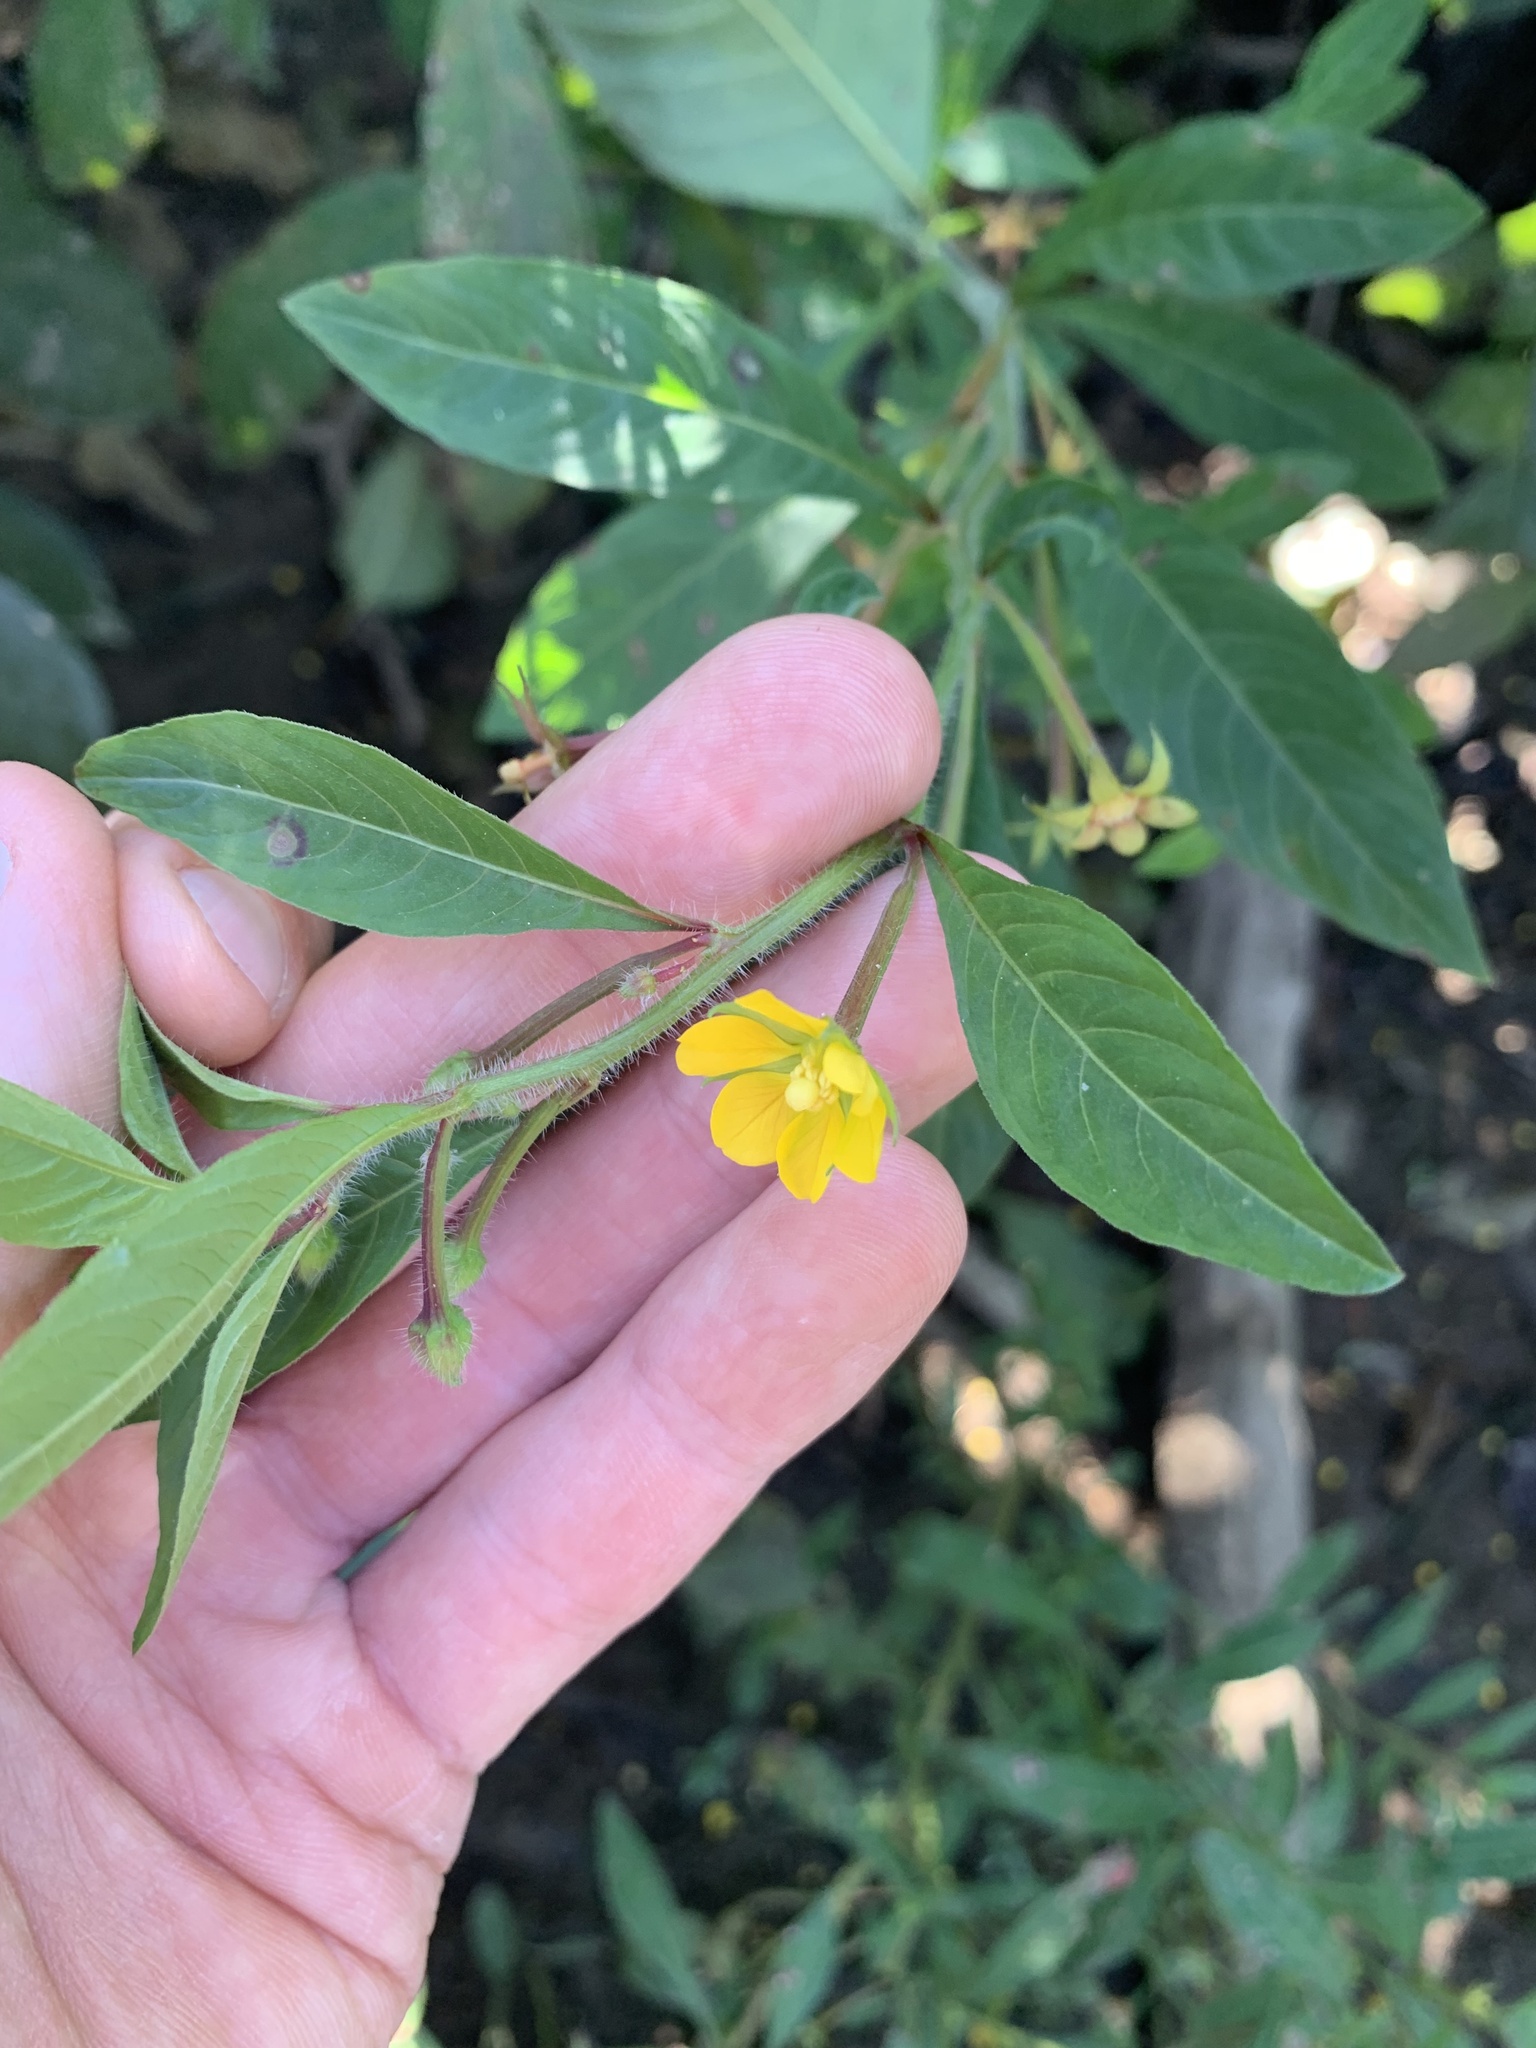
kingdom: Plantae
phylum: Tracheophyta
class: Magnoliopsida
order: Myrtales
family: Onagraceae
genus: Ludwigia
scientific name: Ludwigia leptocarpa
